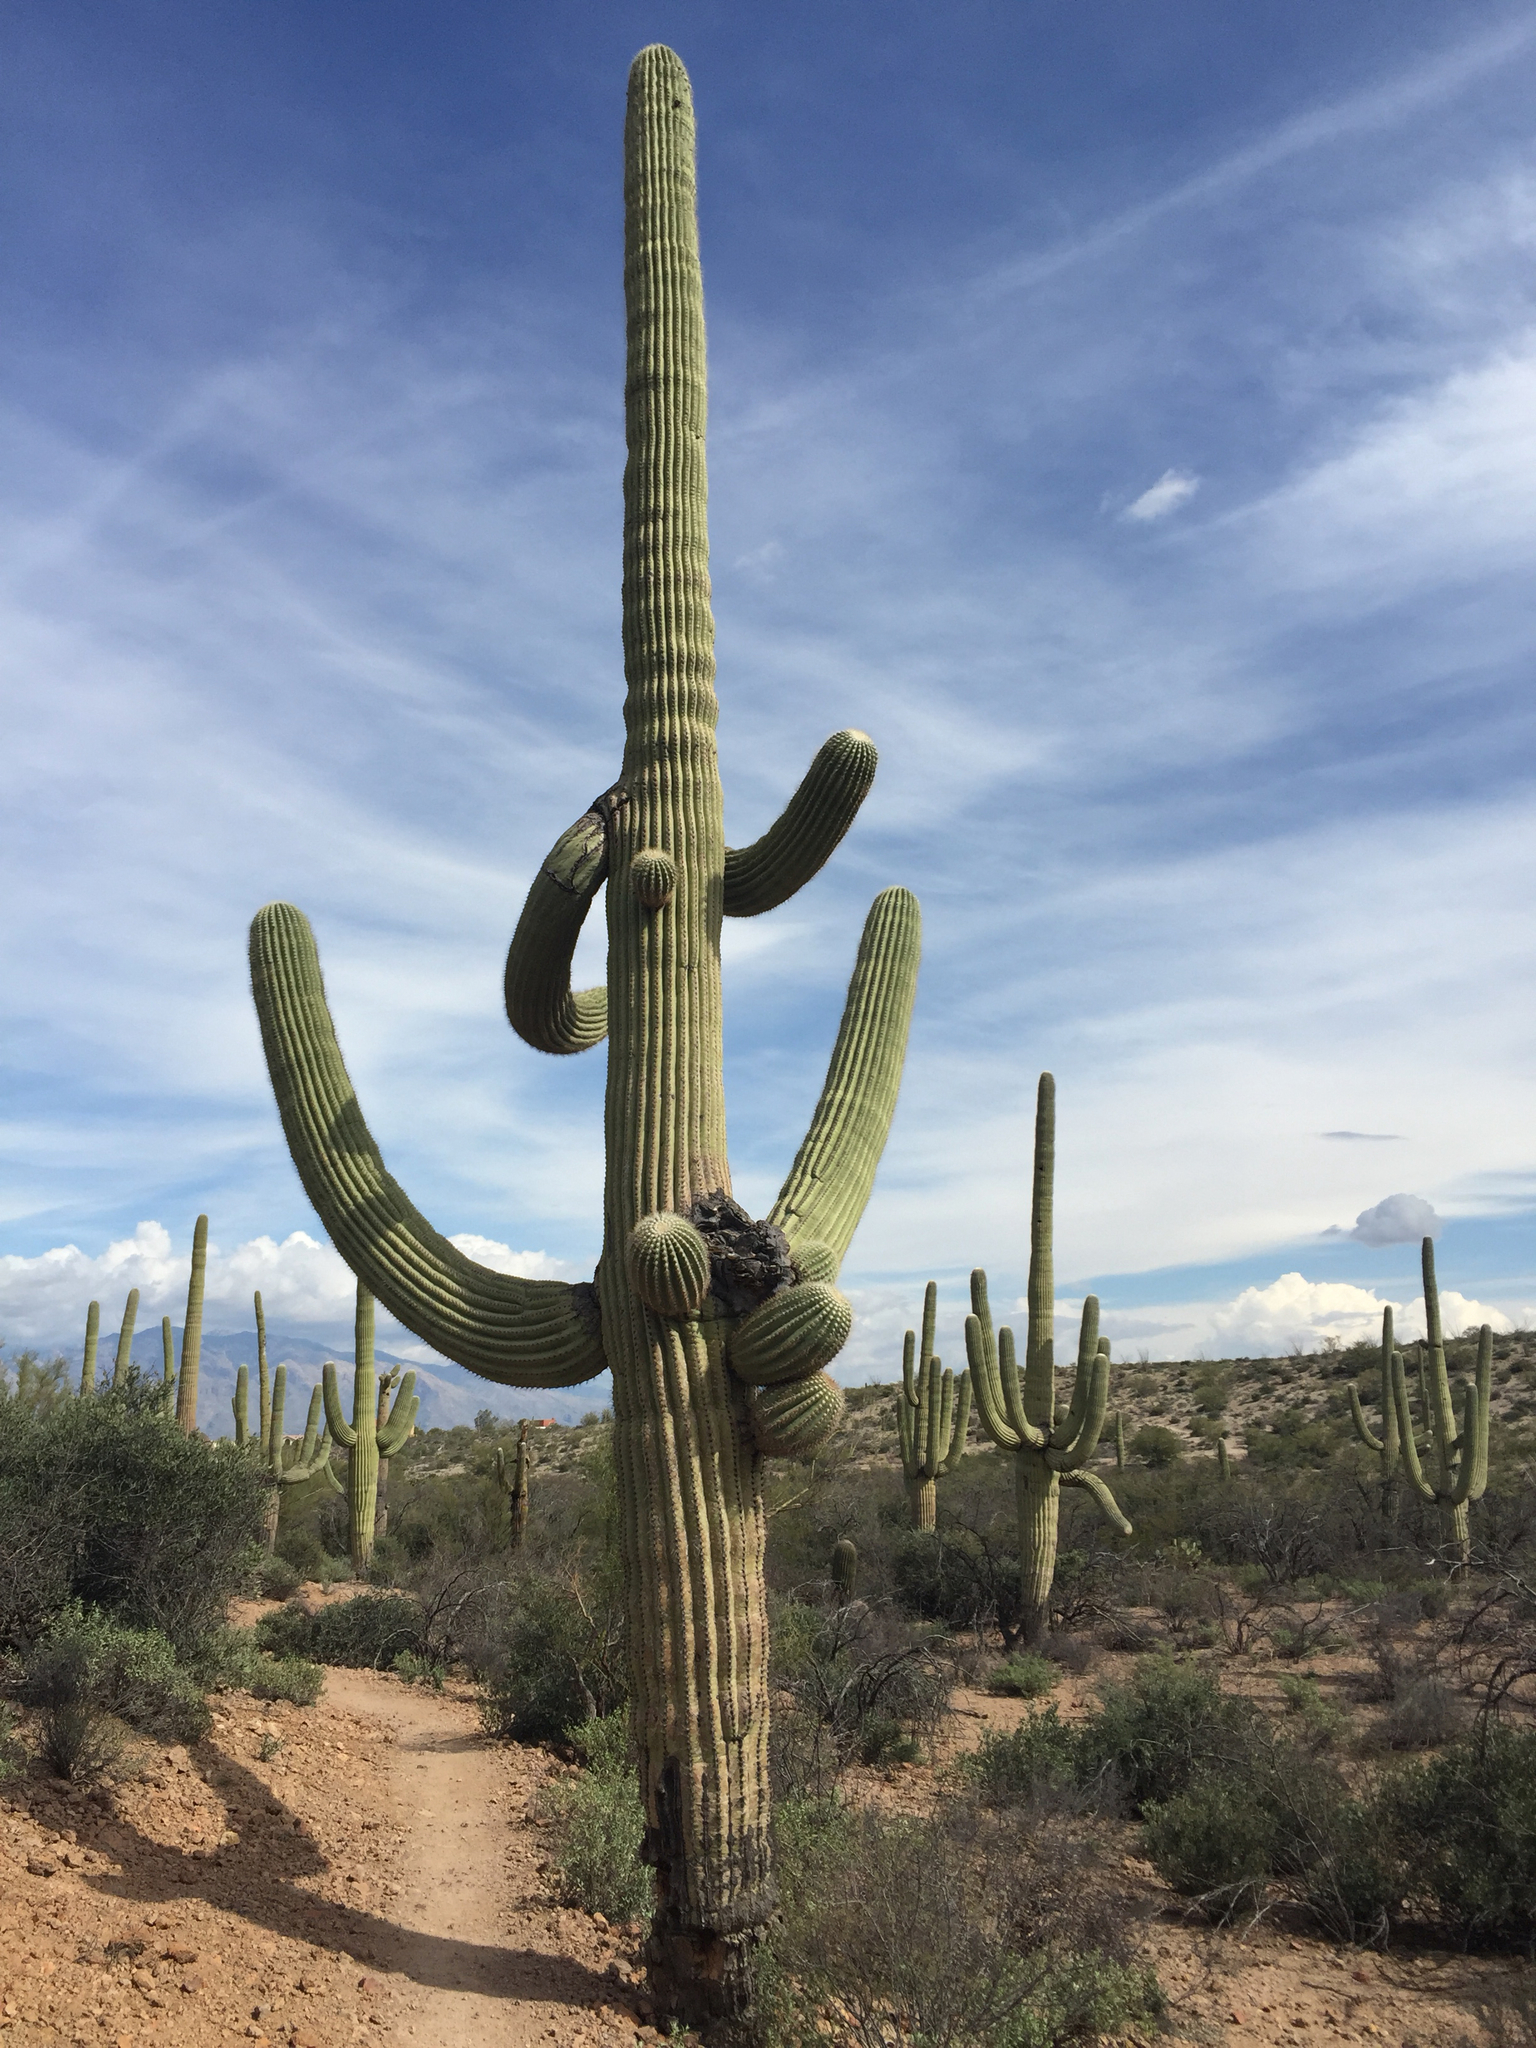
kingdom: Plantae
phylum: Tracheophyta
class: Magnoliopsida
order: Caryophyllales
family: Cactaceae
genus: Carnegiea
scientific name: Carnegiea gigantea
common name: Saguaro
